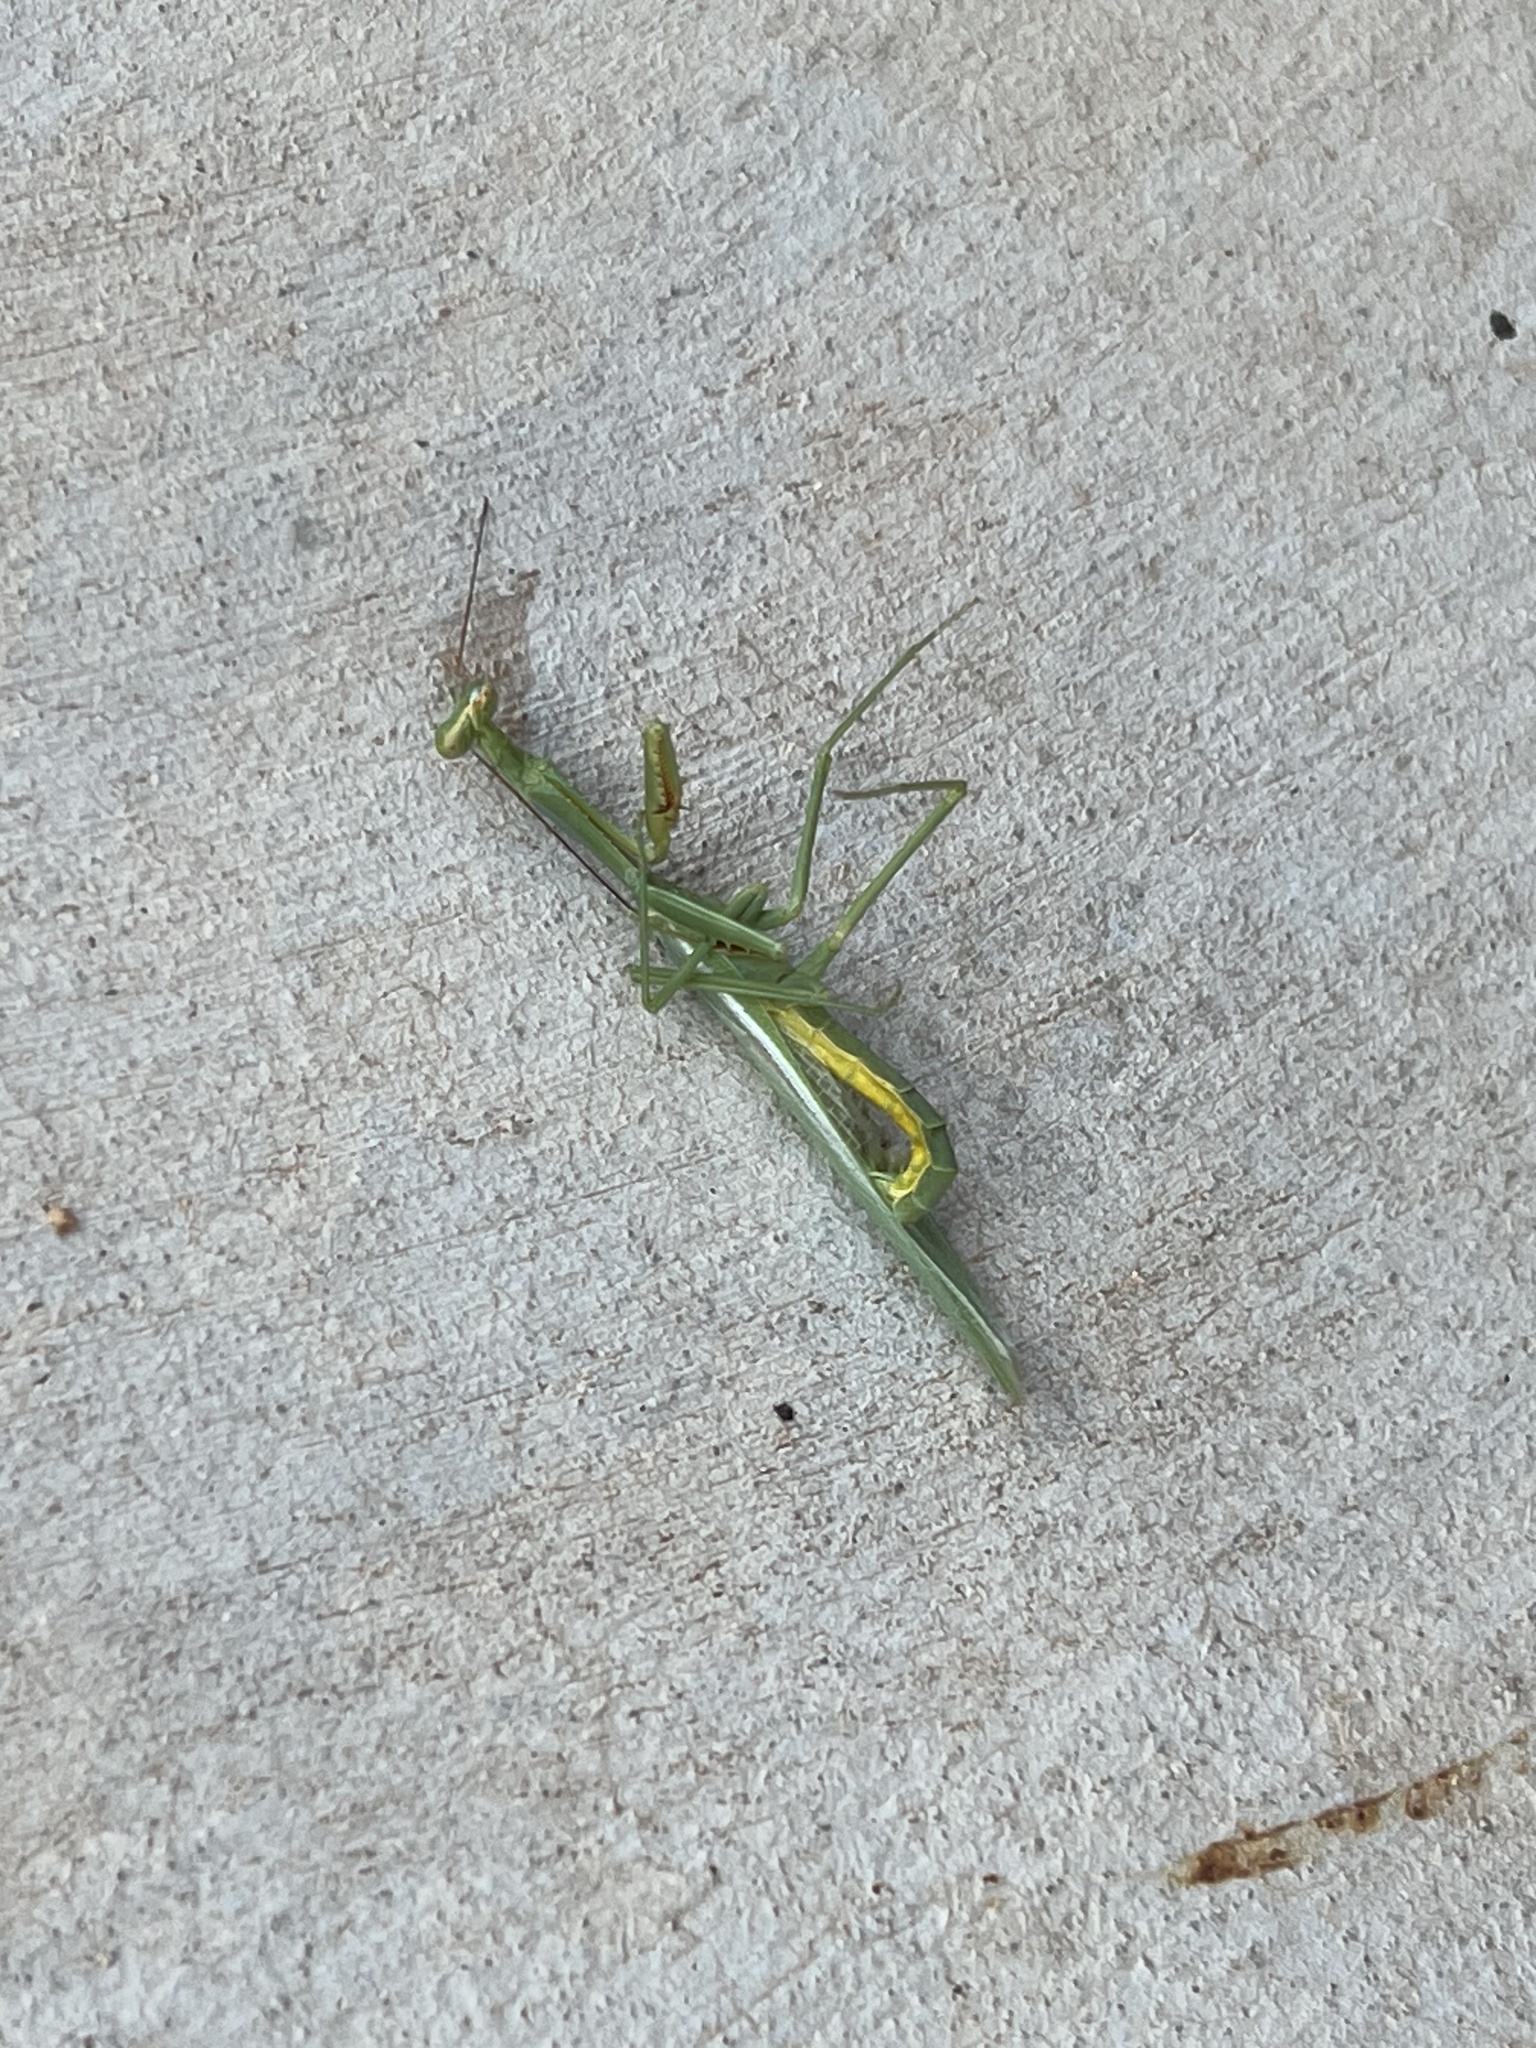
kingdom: Animalia
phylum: Arthropoda
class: Insecta
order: Mantodea
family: Mantidae
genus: Stagmomantis
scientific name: Stagmomantis limbata
